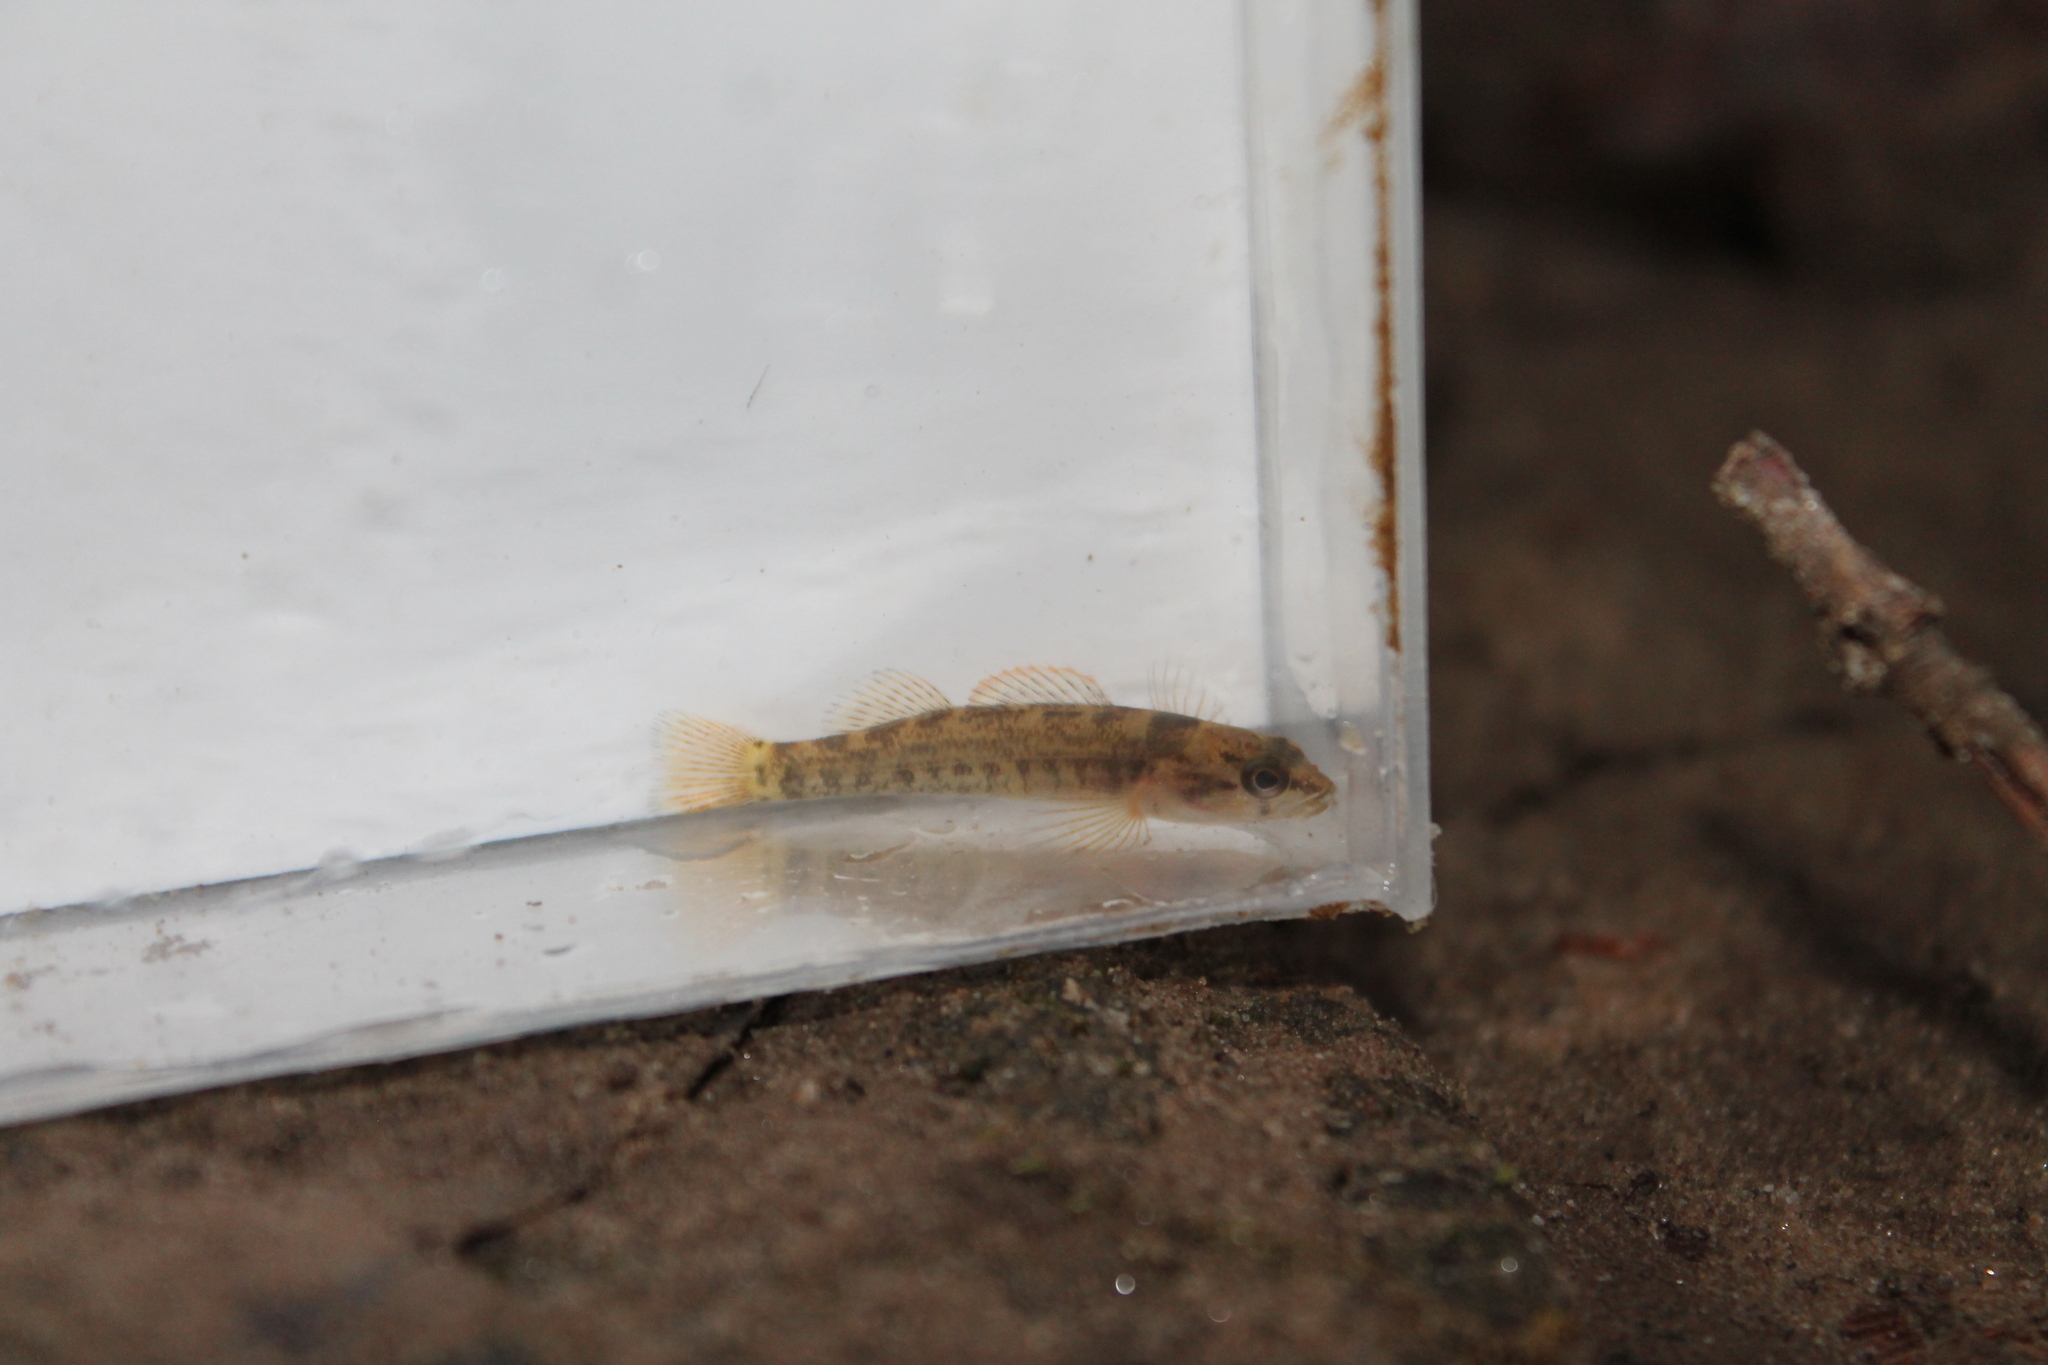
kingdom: Animalia
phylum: Chordata
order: Perciformes
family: Percidae
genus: Etheostoma
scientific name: Etheostoma douglasi
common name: Tuskaloosa darter
